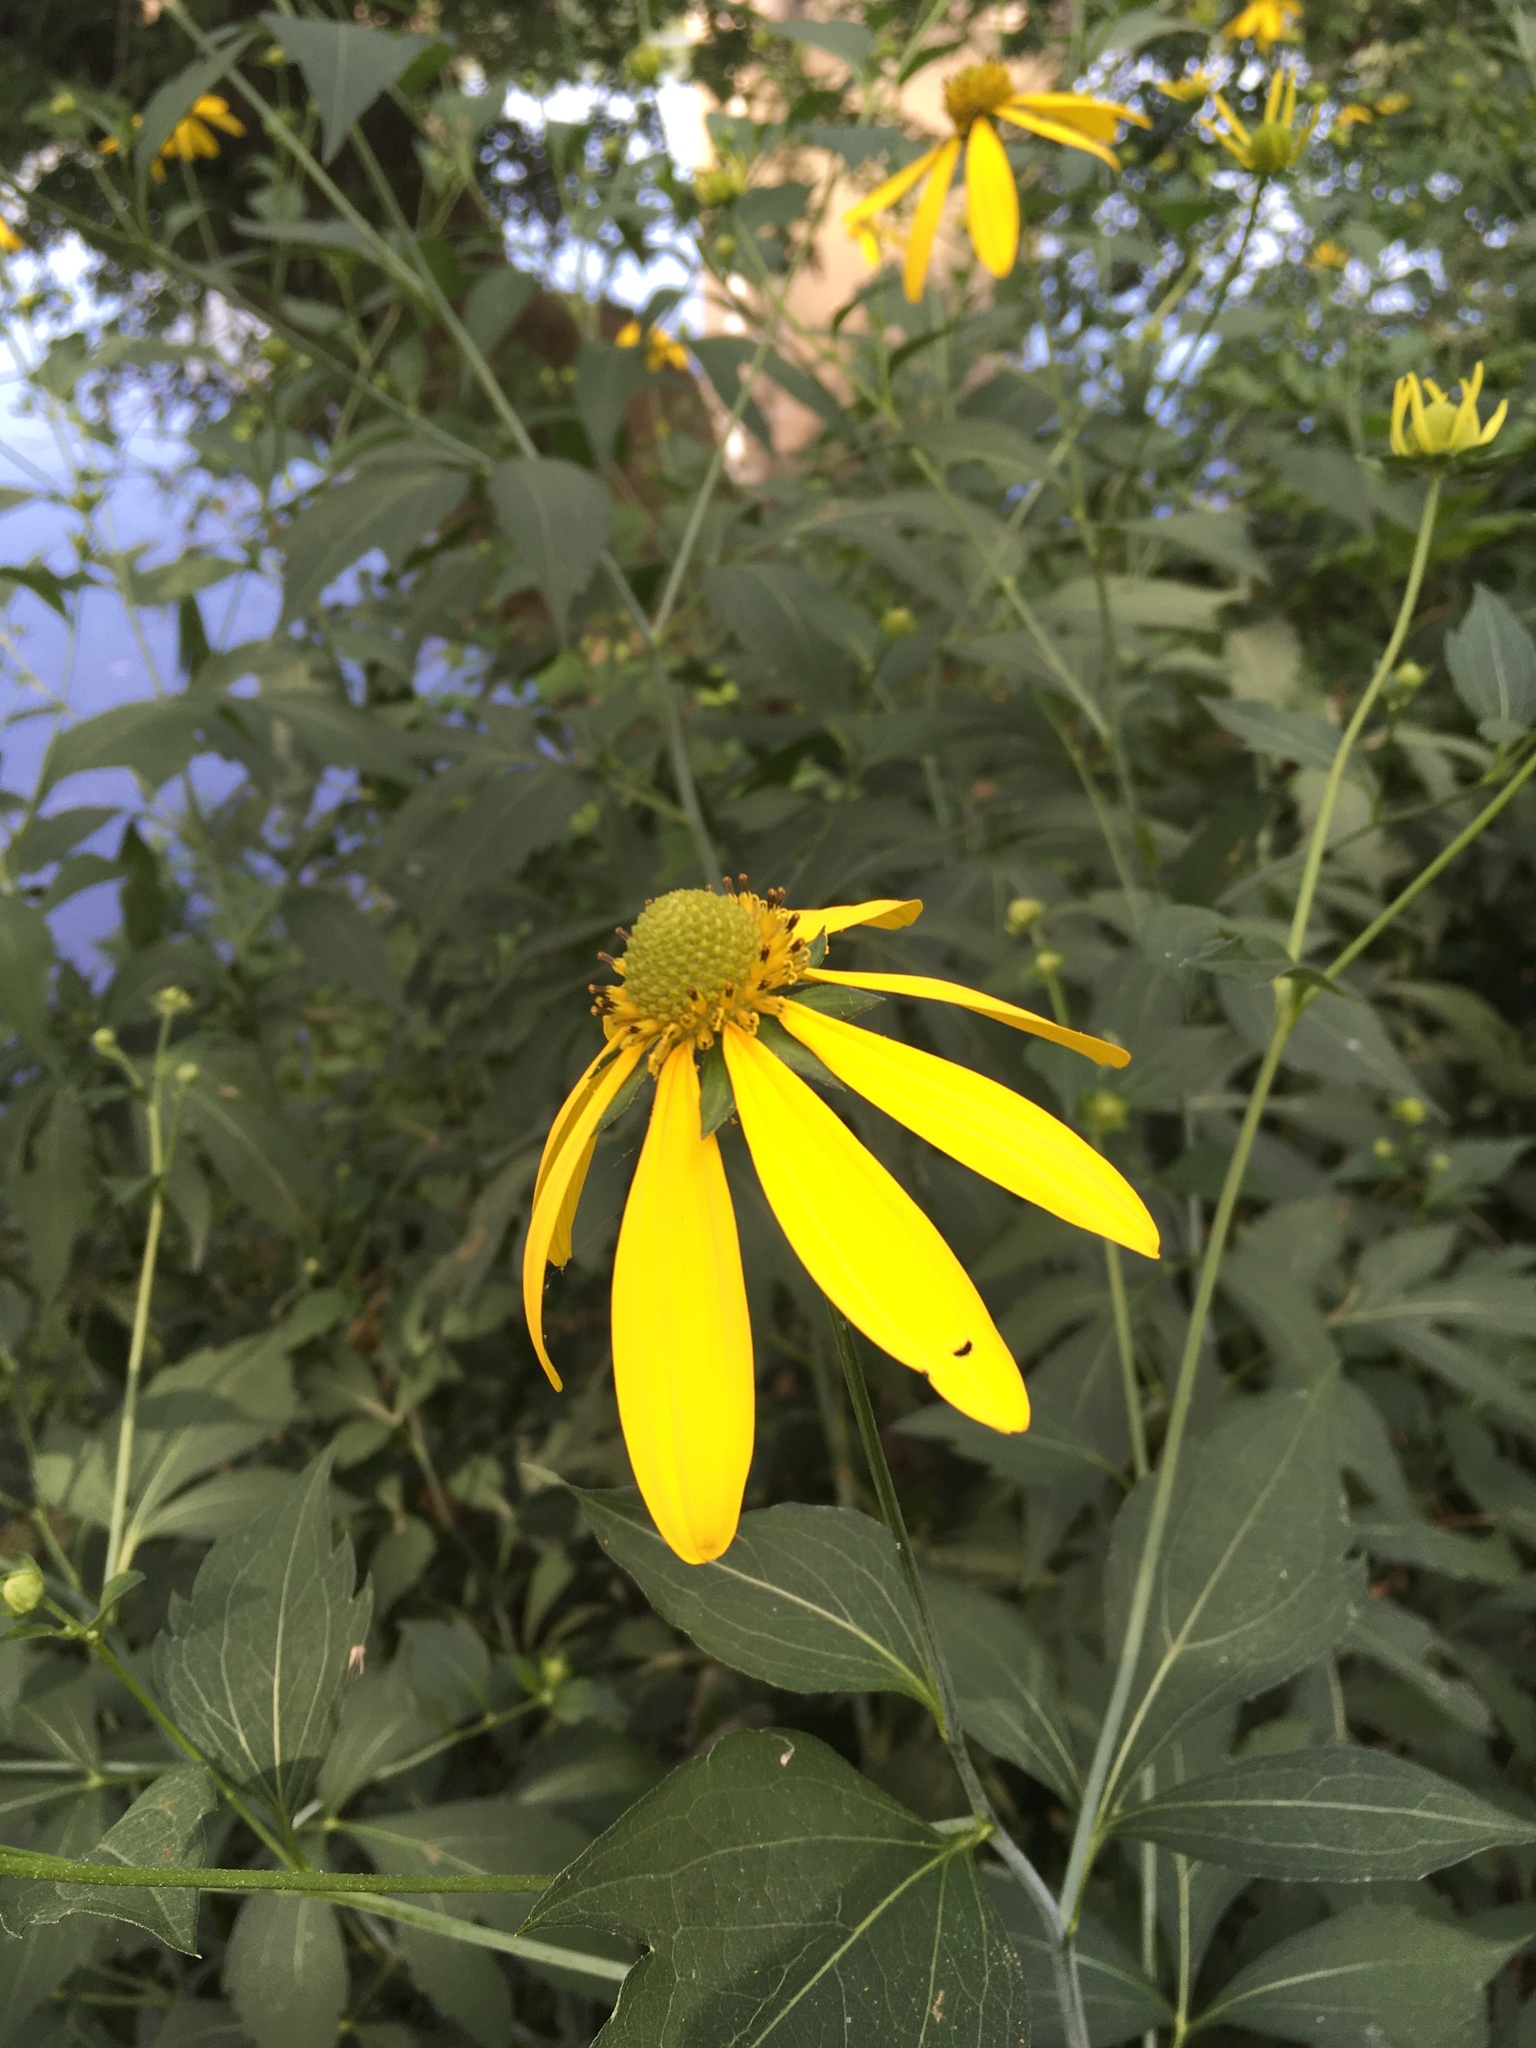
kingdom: Plantae
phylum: Tracheophyta
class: Magnoliopsida
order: Asterales
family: Asteraceae
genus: Rudbeckia
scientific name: Rudbeckia laciniata
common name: Coneflower
